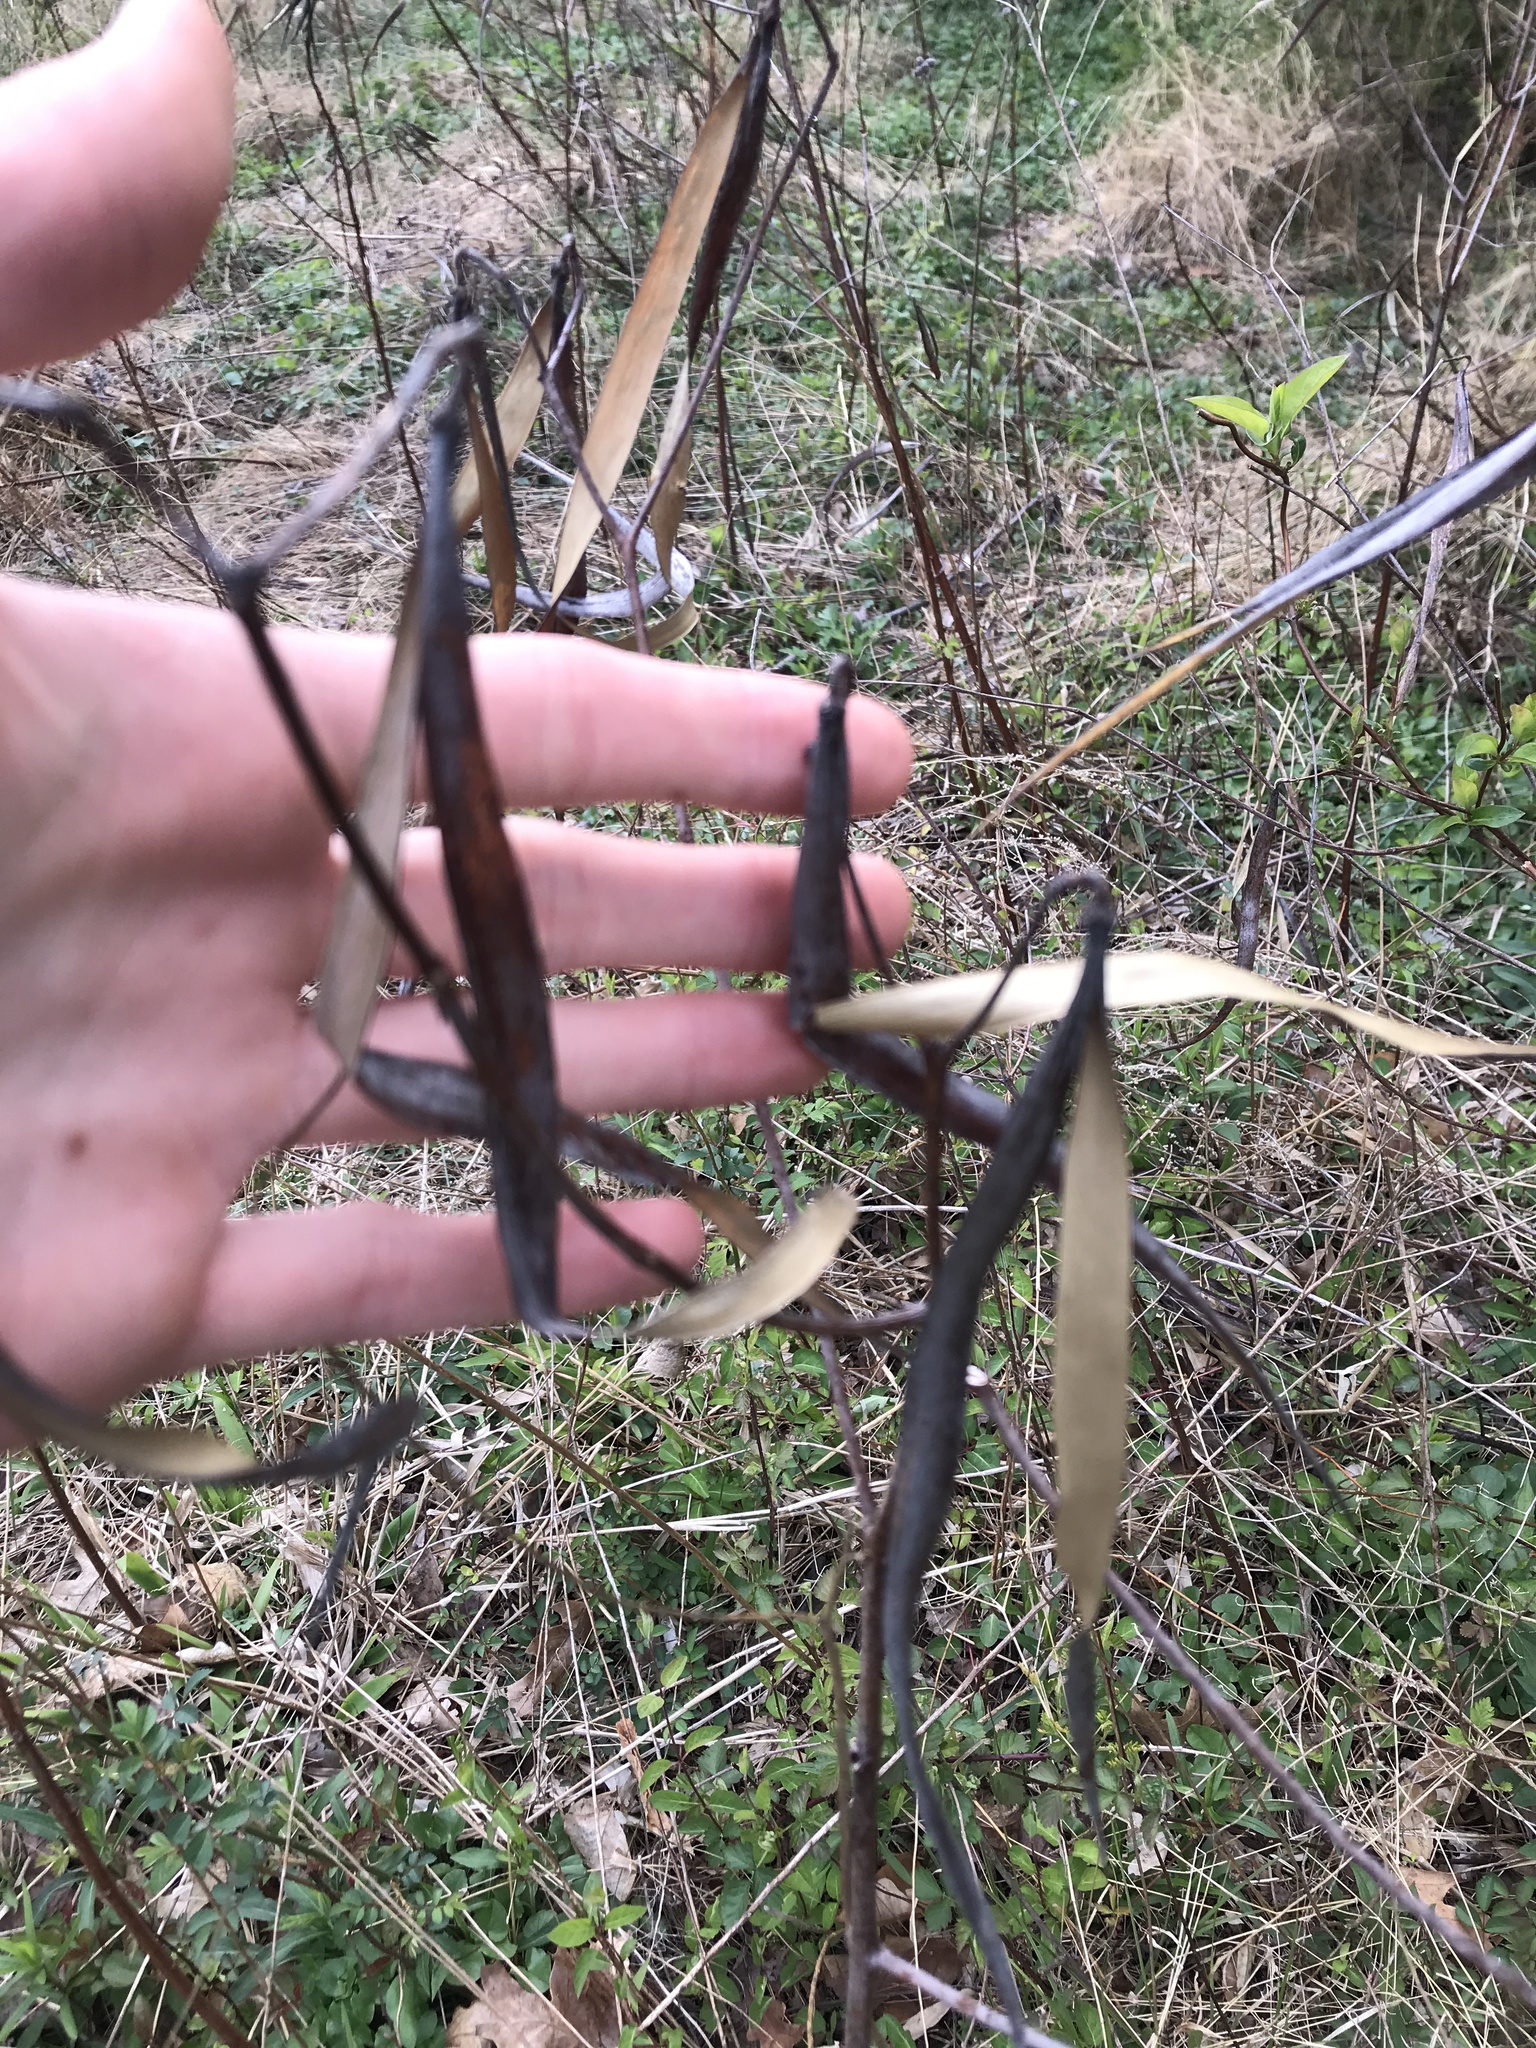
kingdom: Plantae
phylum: Tracheophyta
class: Magnoliopsida
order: Gentianales
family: Apocynaceae
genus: Apocynum
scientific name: Apocynum cannabinum
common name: Hemp dogbane
